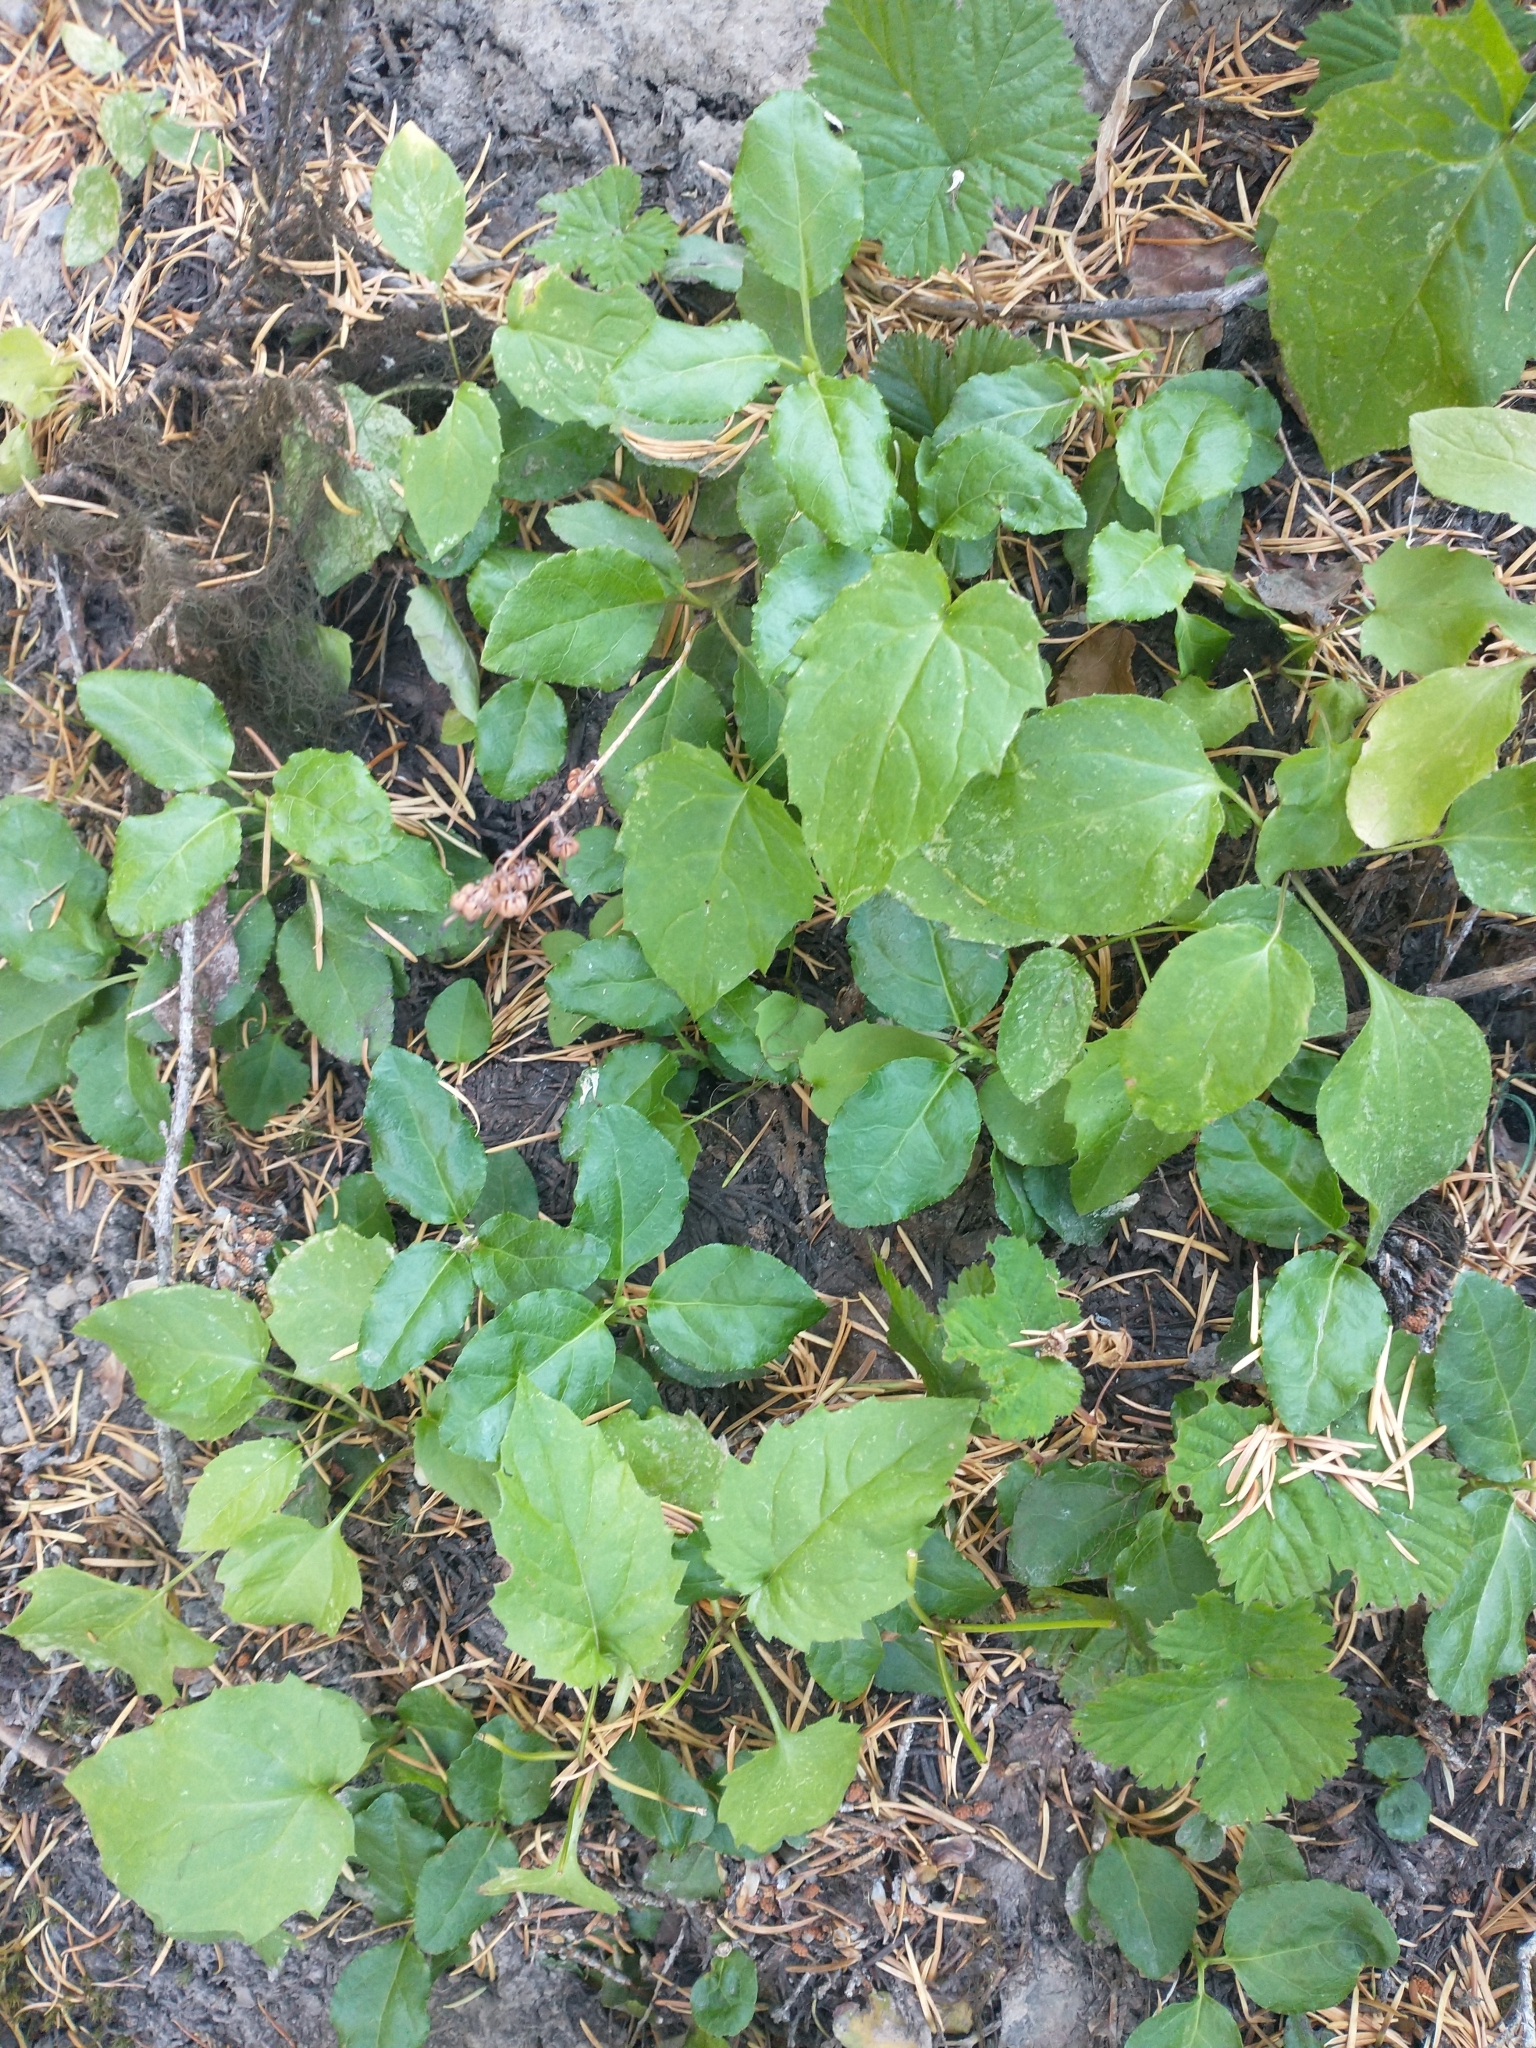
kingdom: Plantae
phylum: Tracheophyta
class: Magnoliopsida
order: Asterales
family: Asteraceae
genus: Arnica
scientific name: Arnica latifolia
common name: Arnica
